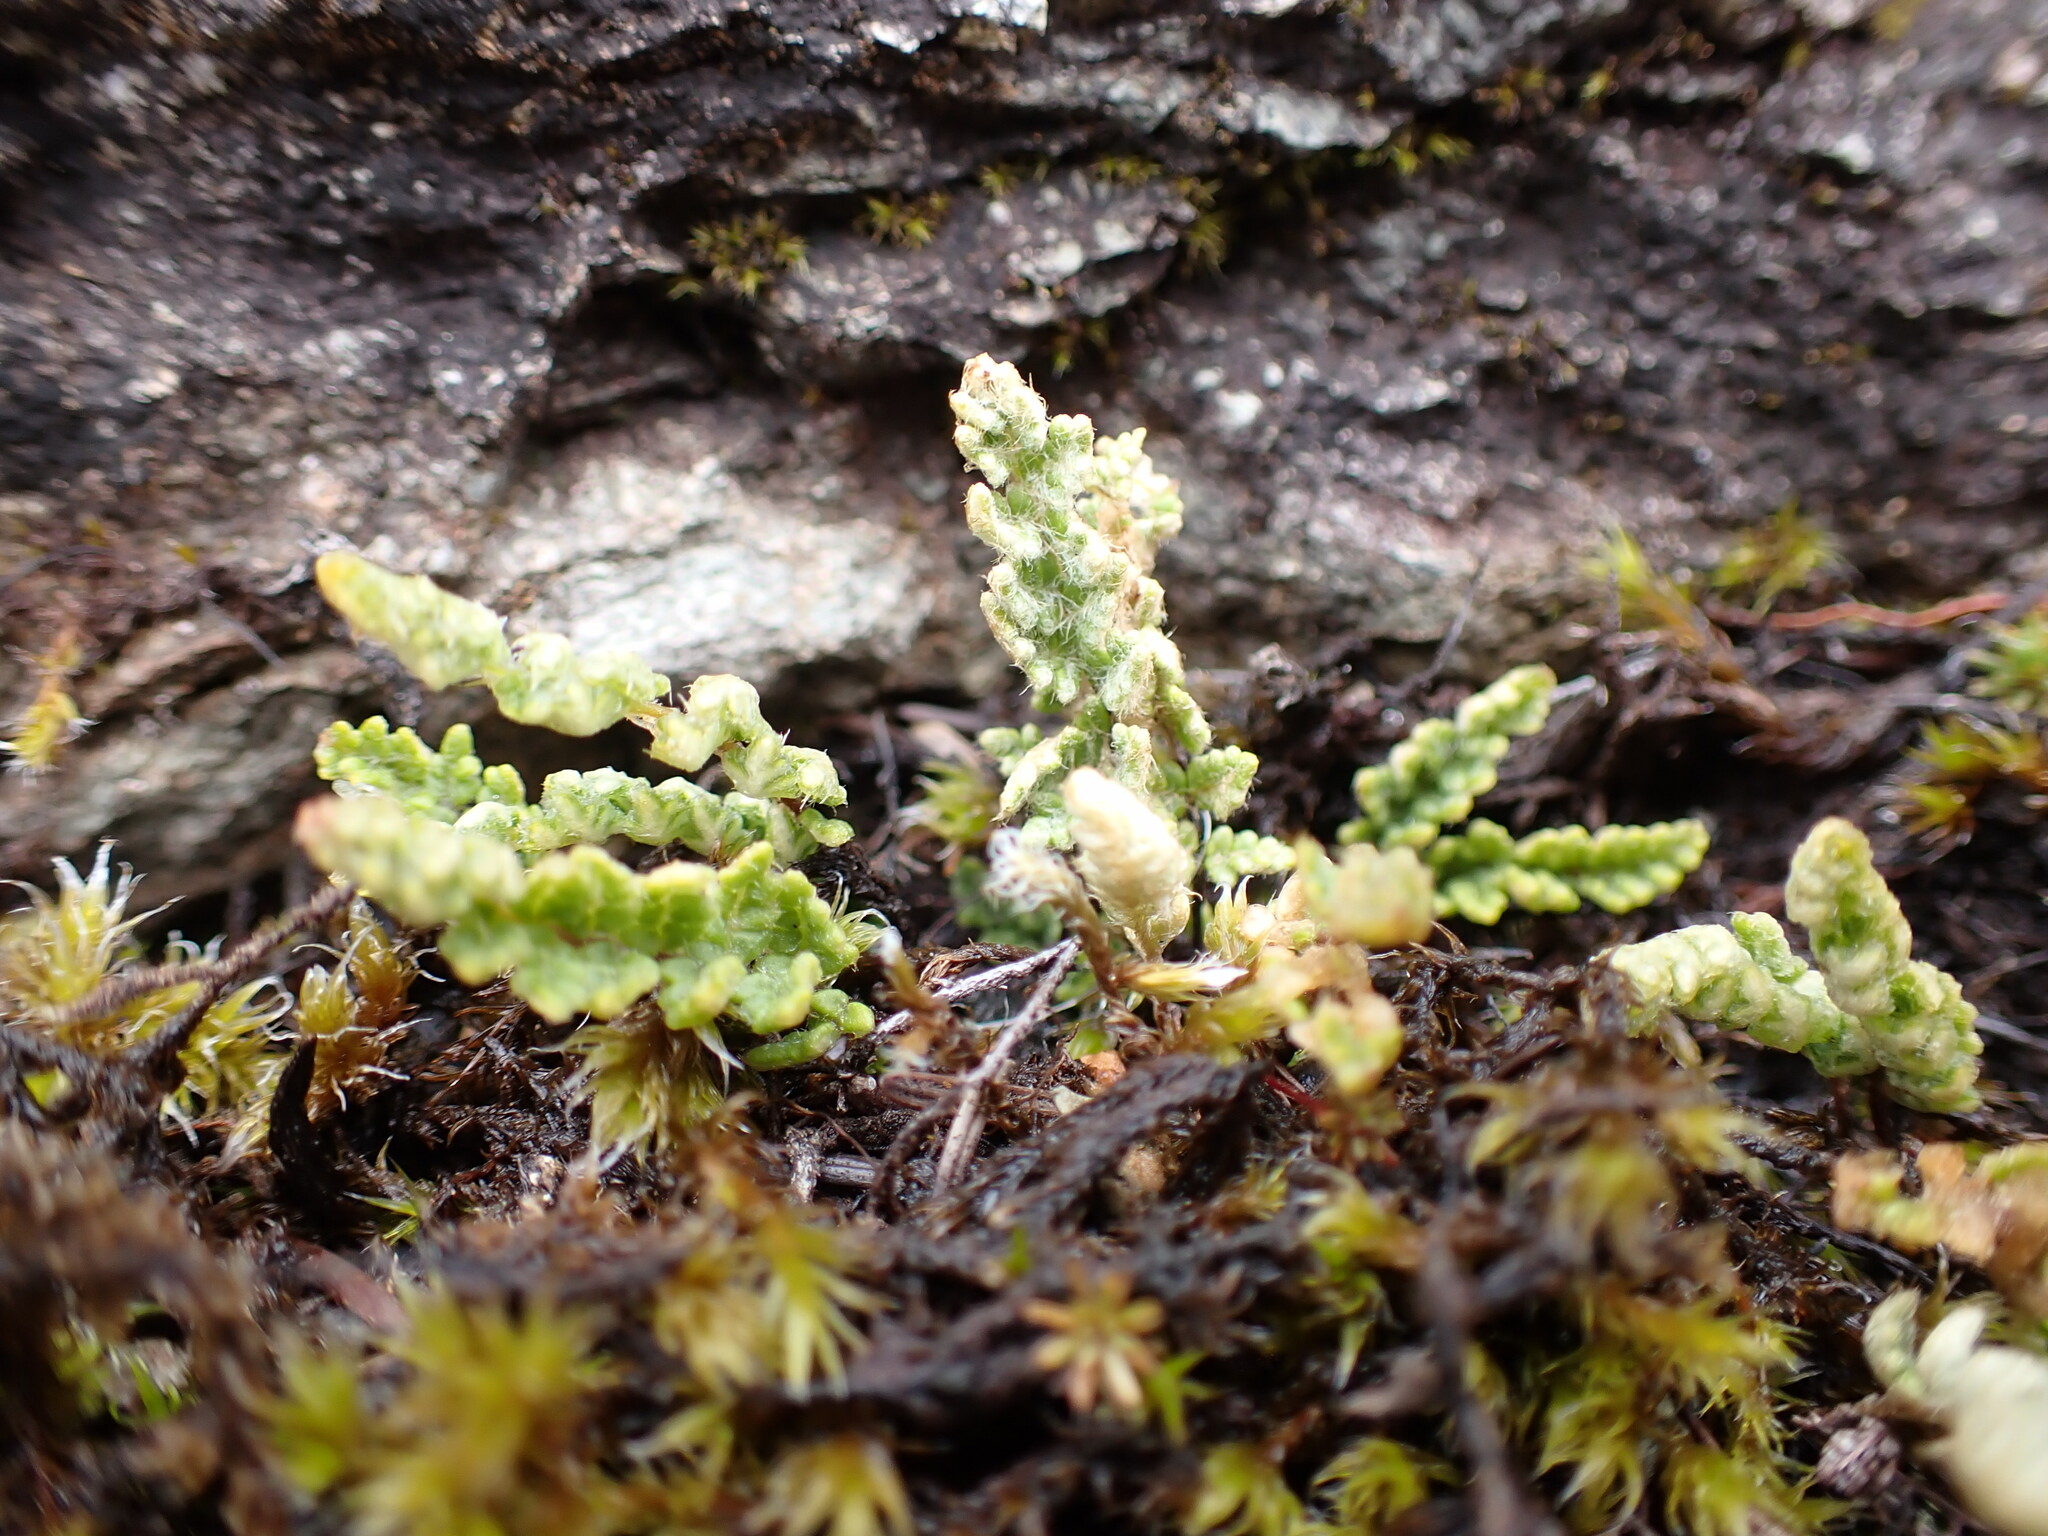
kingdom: Plantae
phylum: Tracheophyta
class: Polypodiopsida
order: Polypodiales
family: Pteridaceae
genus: Myriopteris
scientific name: Myriopteris gracillima
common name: Lace fern
